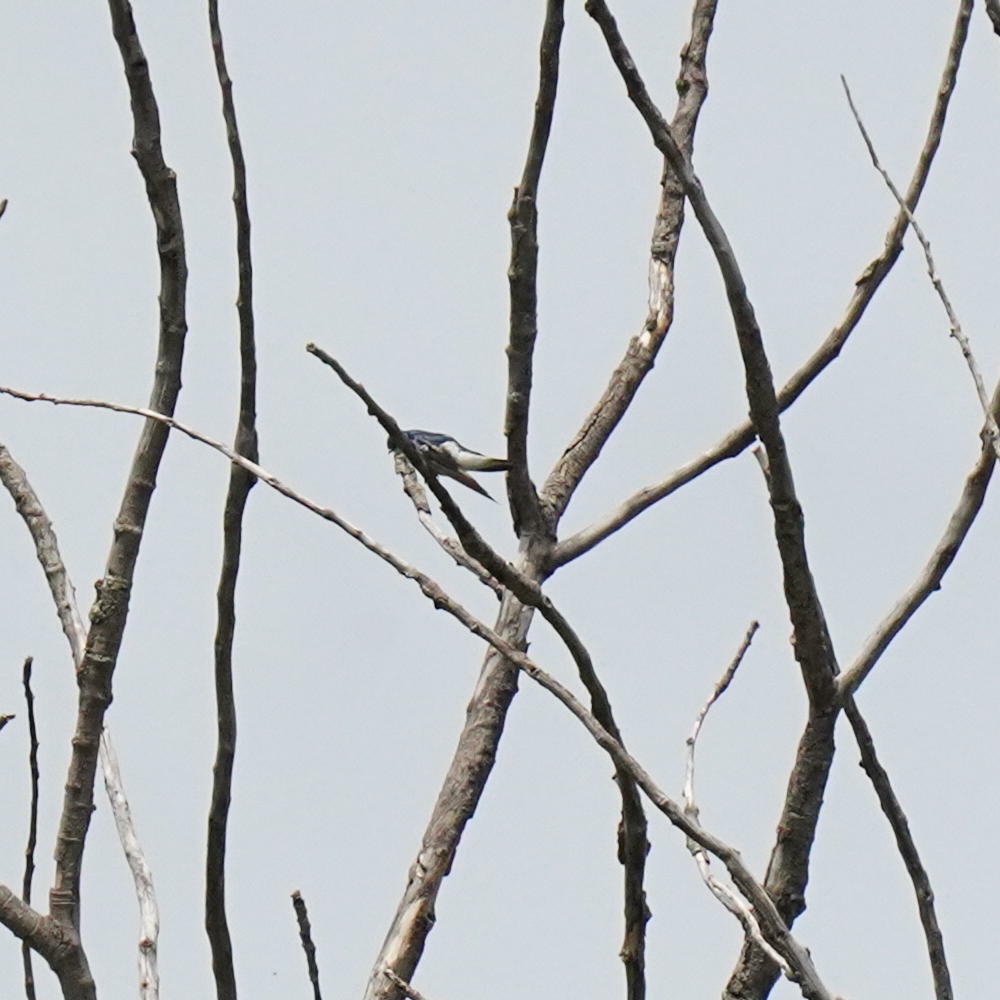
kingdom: Animalia
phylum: Chordata
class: Aves
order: Passeriformes
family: Hirundinidae
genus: Tachycineta
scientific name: Tachycineta bicolor
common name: Tree swallow
